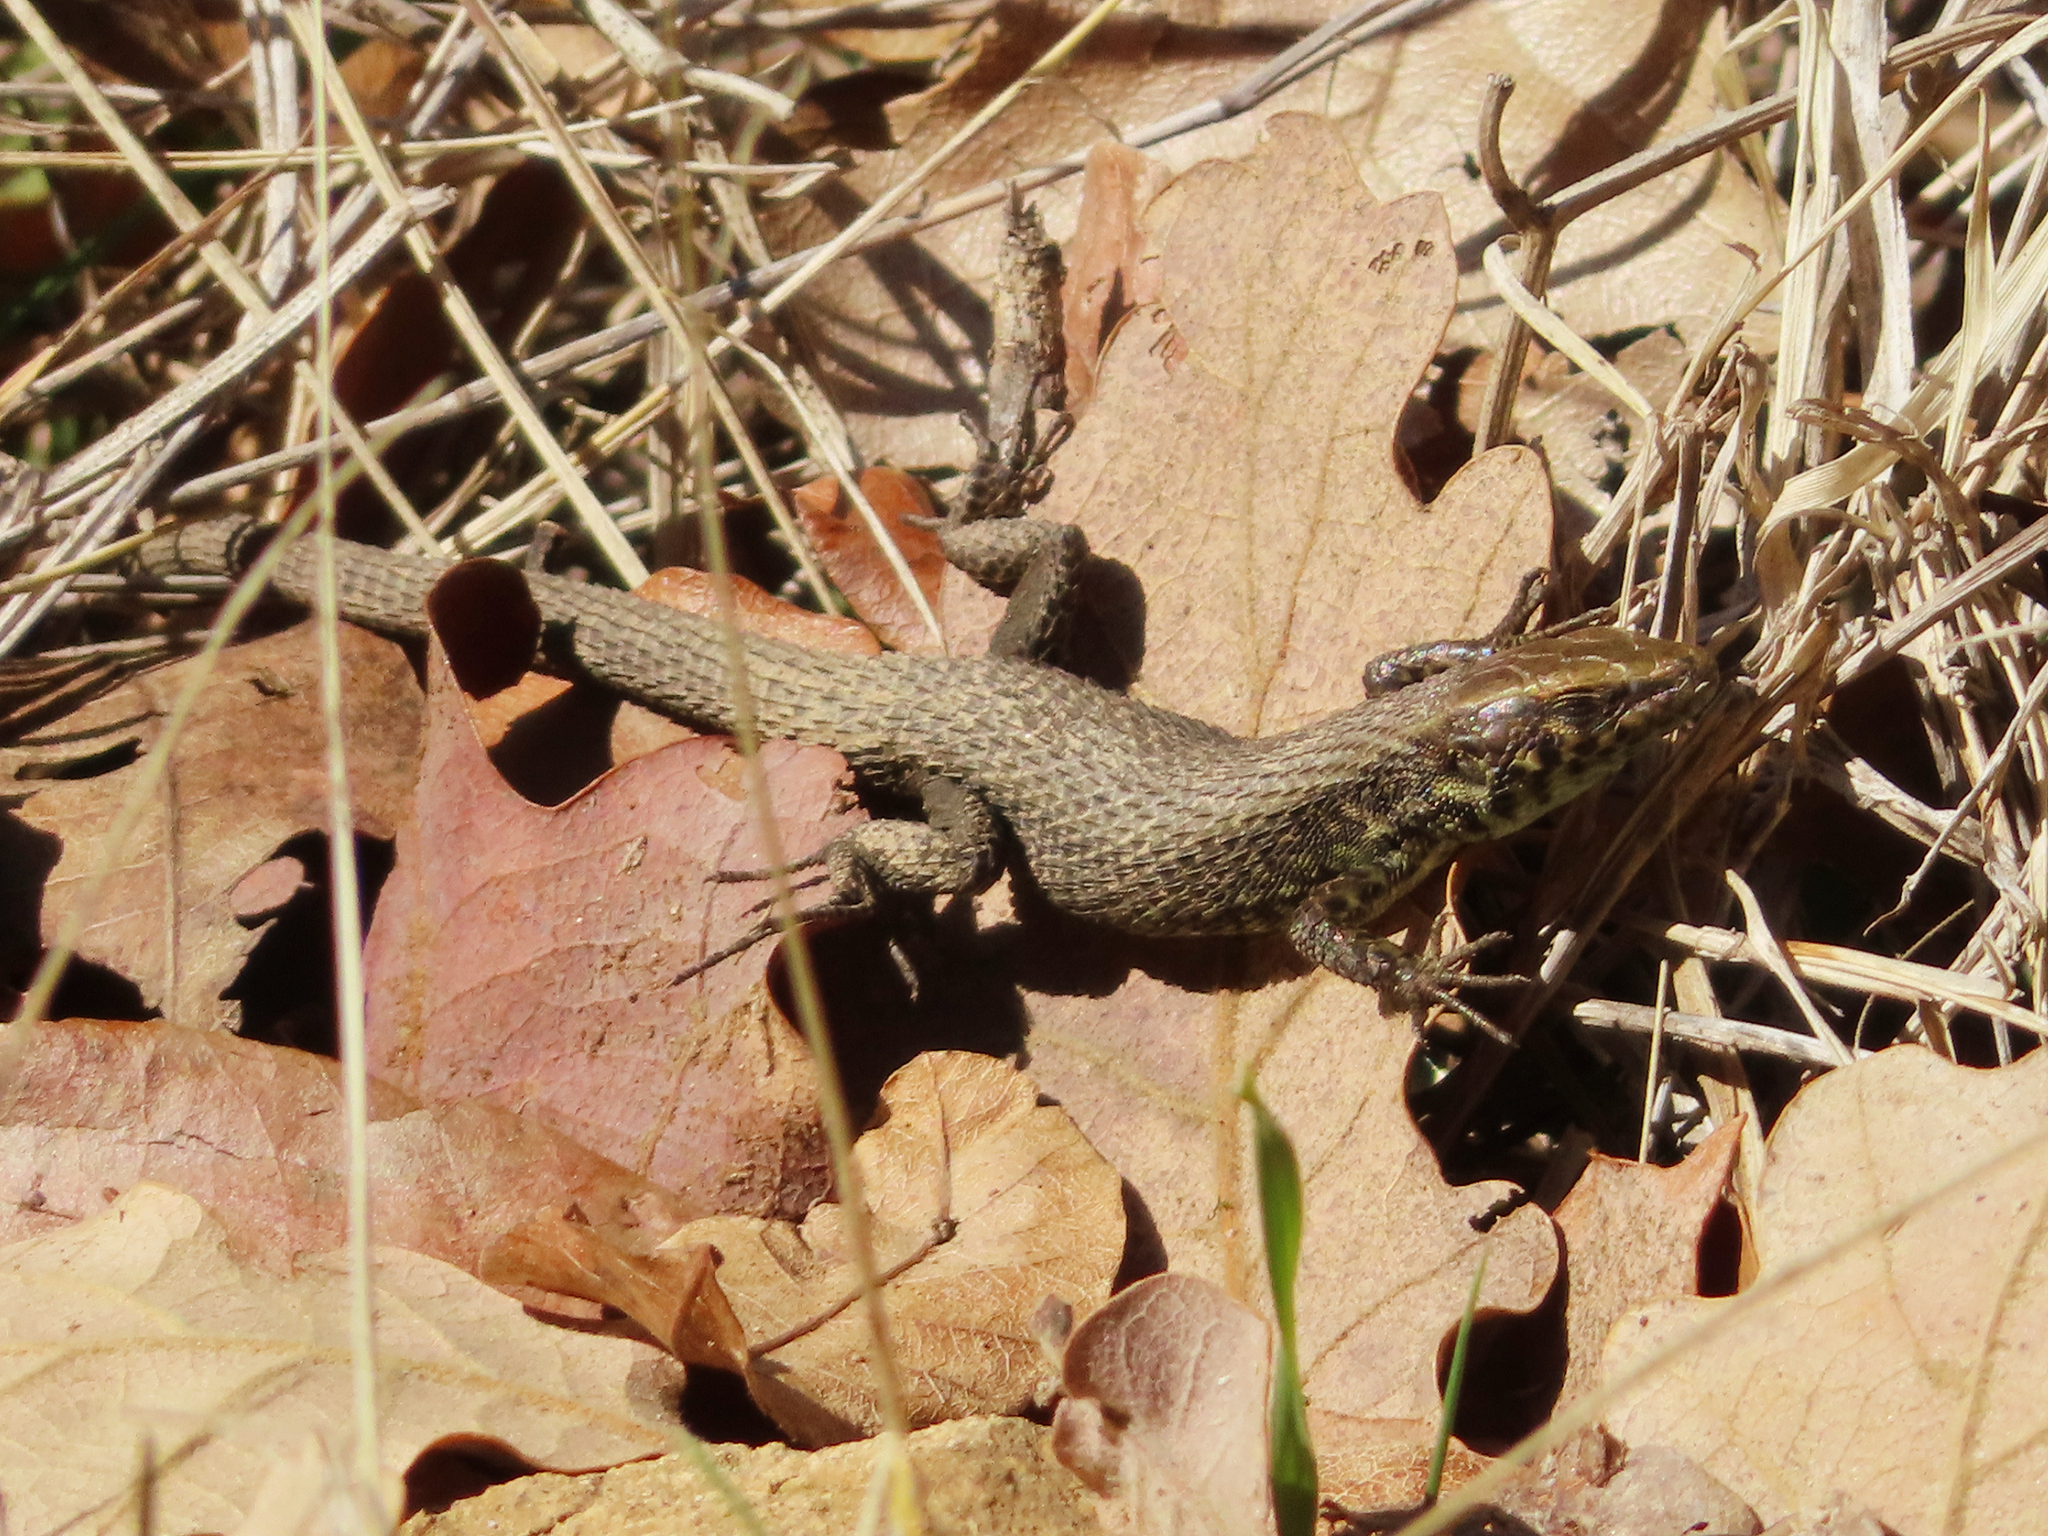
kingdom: Animalia
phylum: Chordata
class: Squamata
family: Lacertidae
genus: Algyroides
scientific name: Algyroides moreoticus
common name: Greek algyroides
